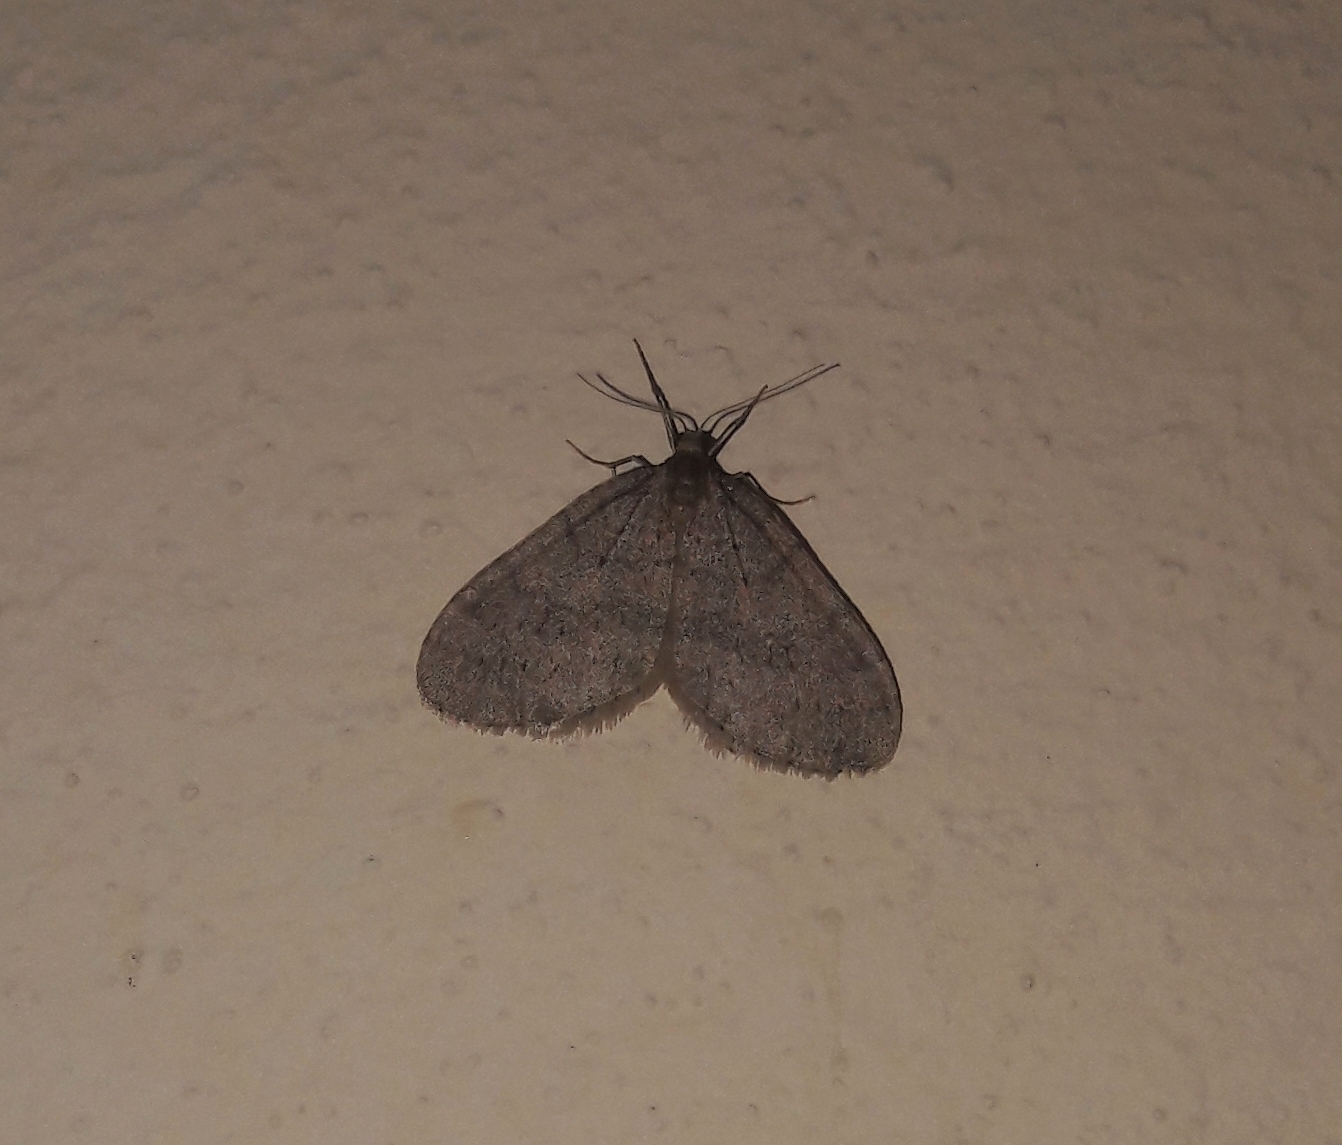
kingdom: Animalia
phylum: Arthropoda
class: Insecta
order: Lepidoptera
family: Geometridae
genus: Operophtera
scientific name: Operophtera brumata
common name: Winter moth
